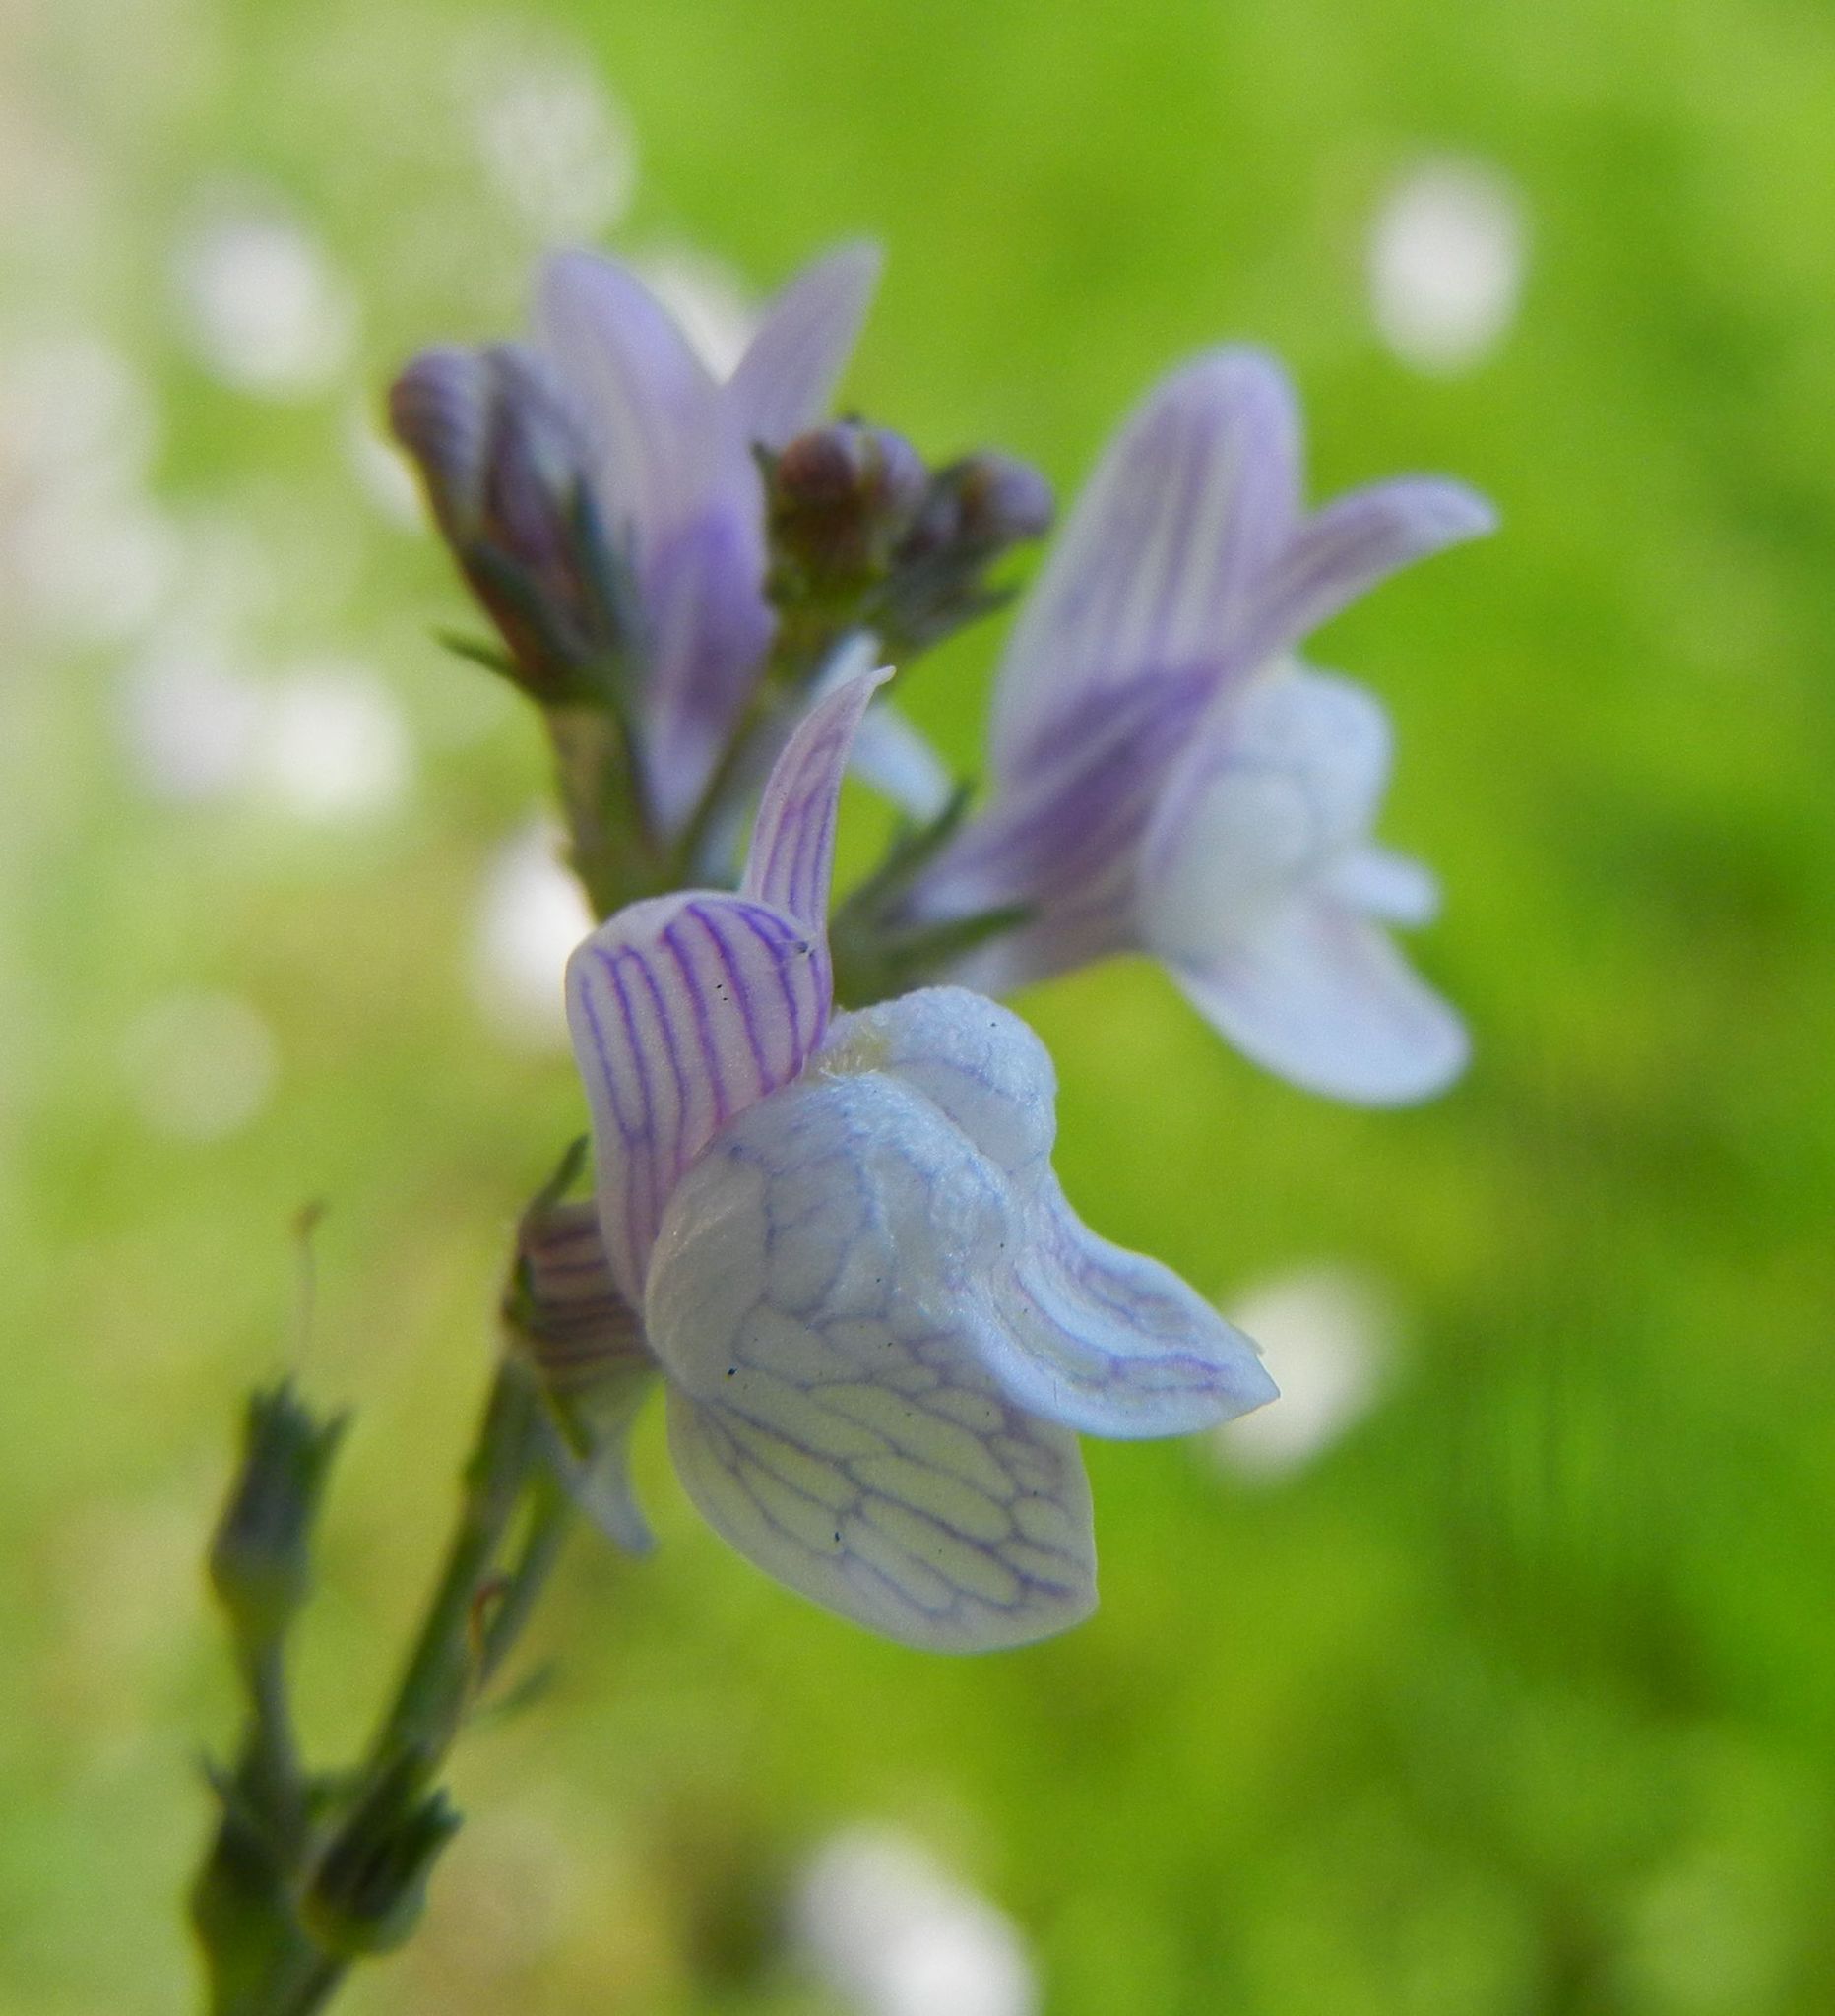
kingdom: Plantae
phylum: Tracheophyta
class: Magnoliopsida
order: Lamiales
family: Plantaginaceae
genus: Linaria
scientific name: Linaria repens
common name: Pale toadflax
